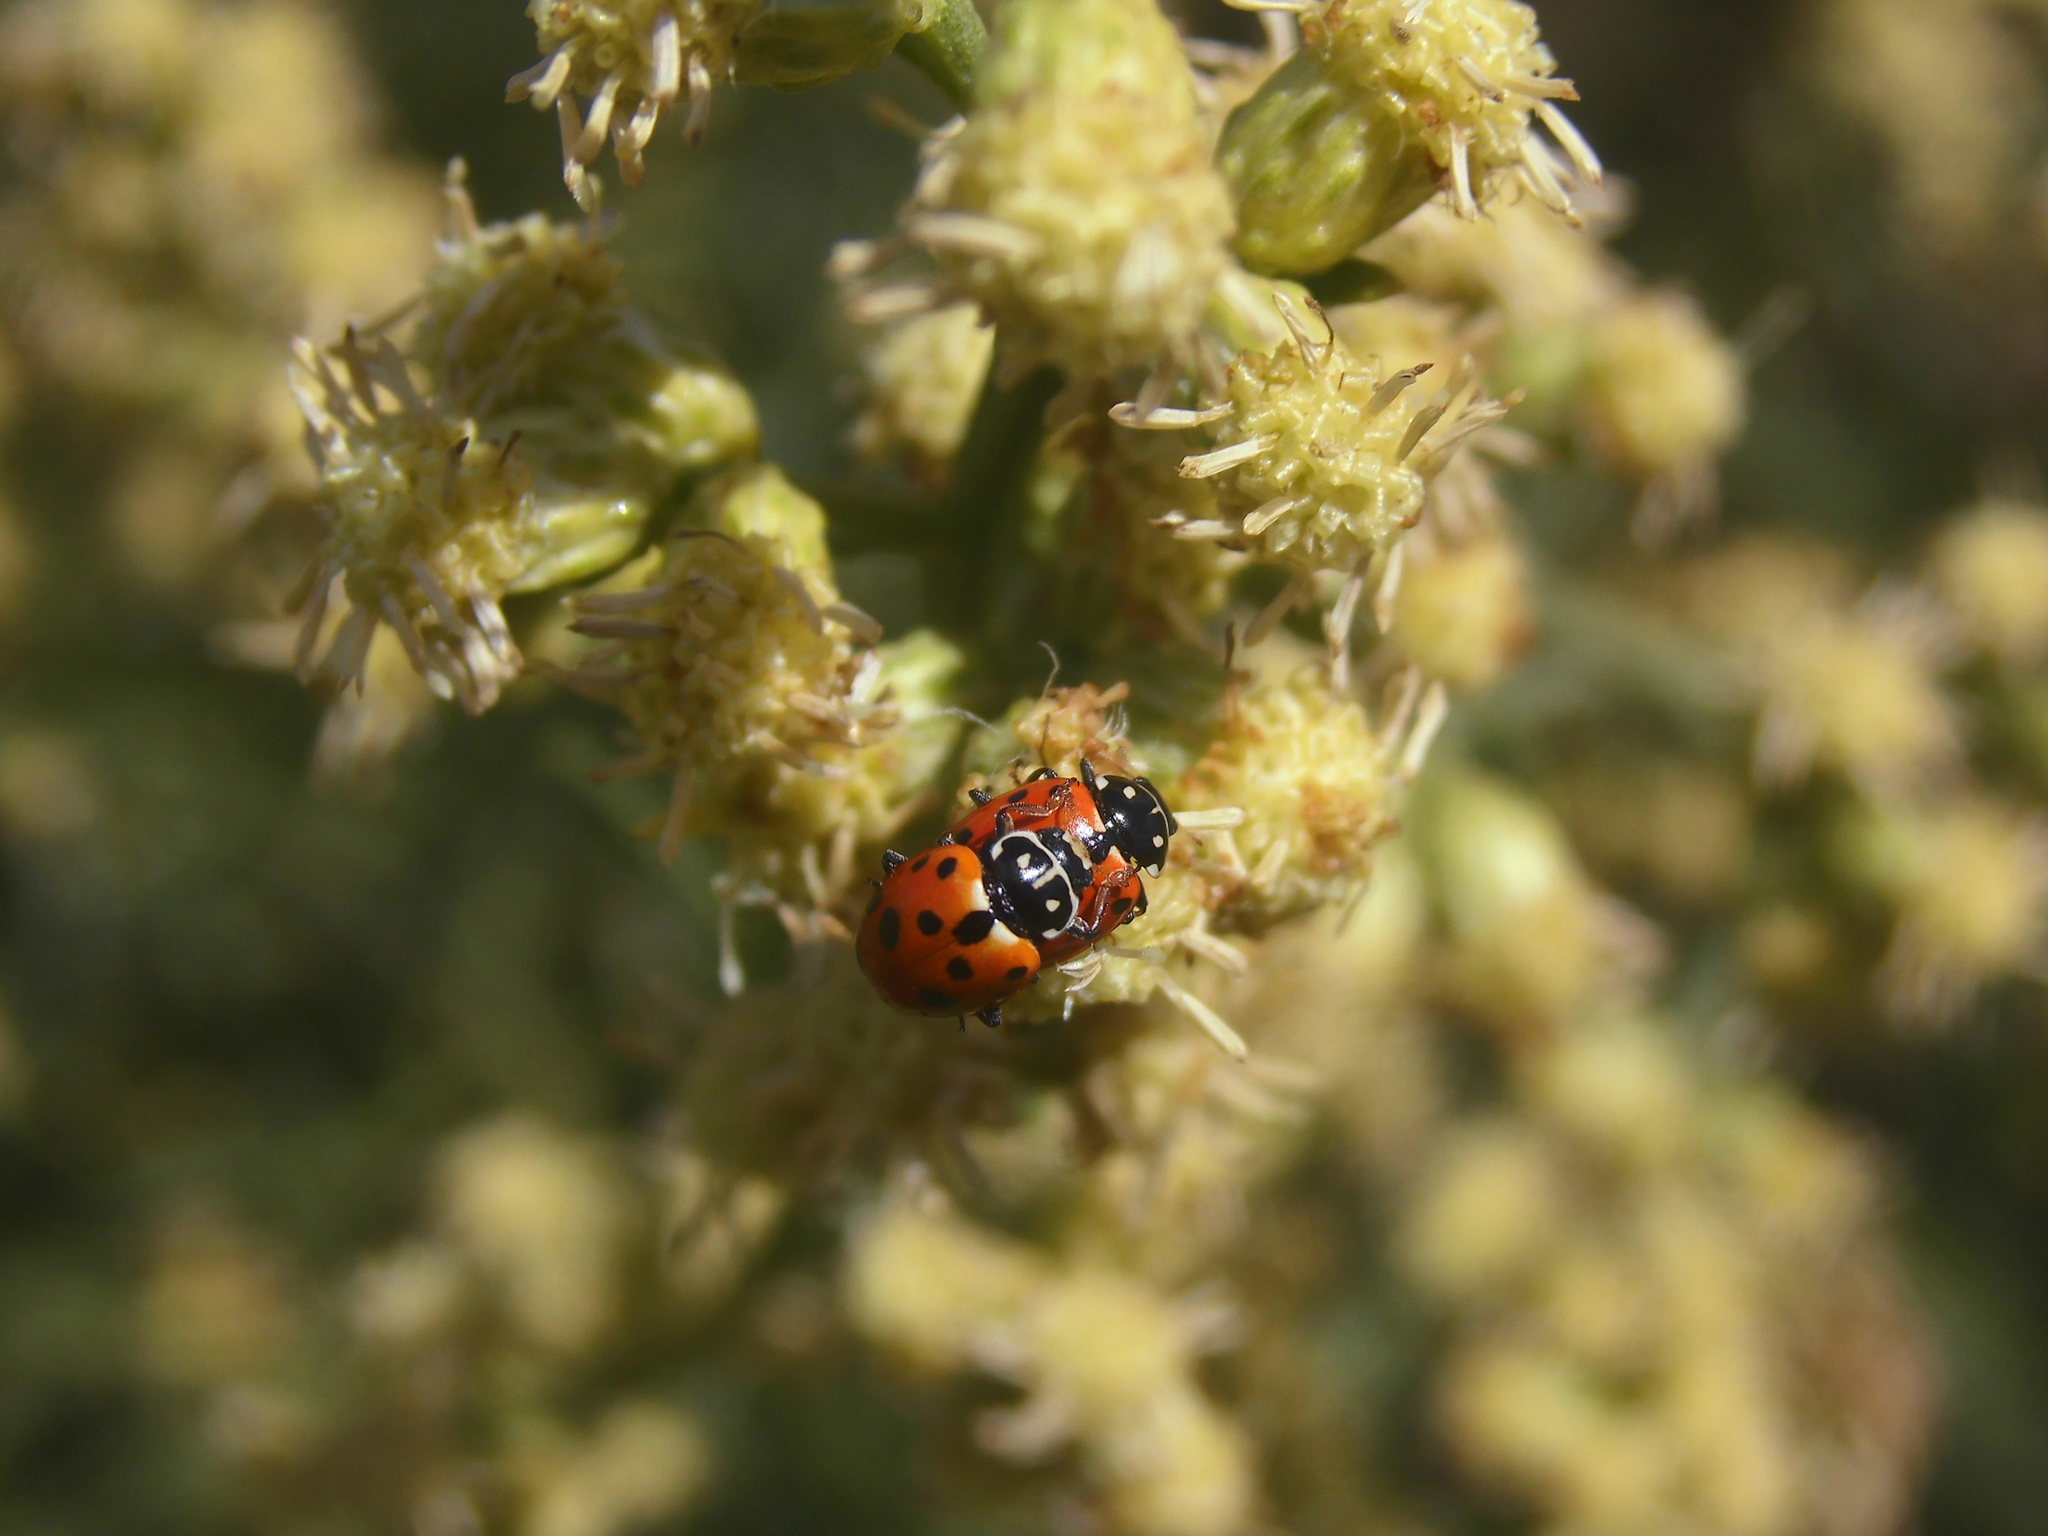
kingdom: Animalia
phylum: Arthropoda
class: Insecta
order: Coleoptera
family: Coccinellidae
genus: Hippodamia
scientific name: Hippodamia variegata
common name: Ladybird beetle
